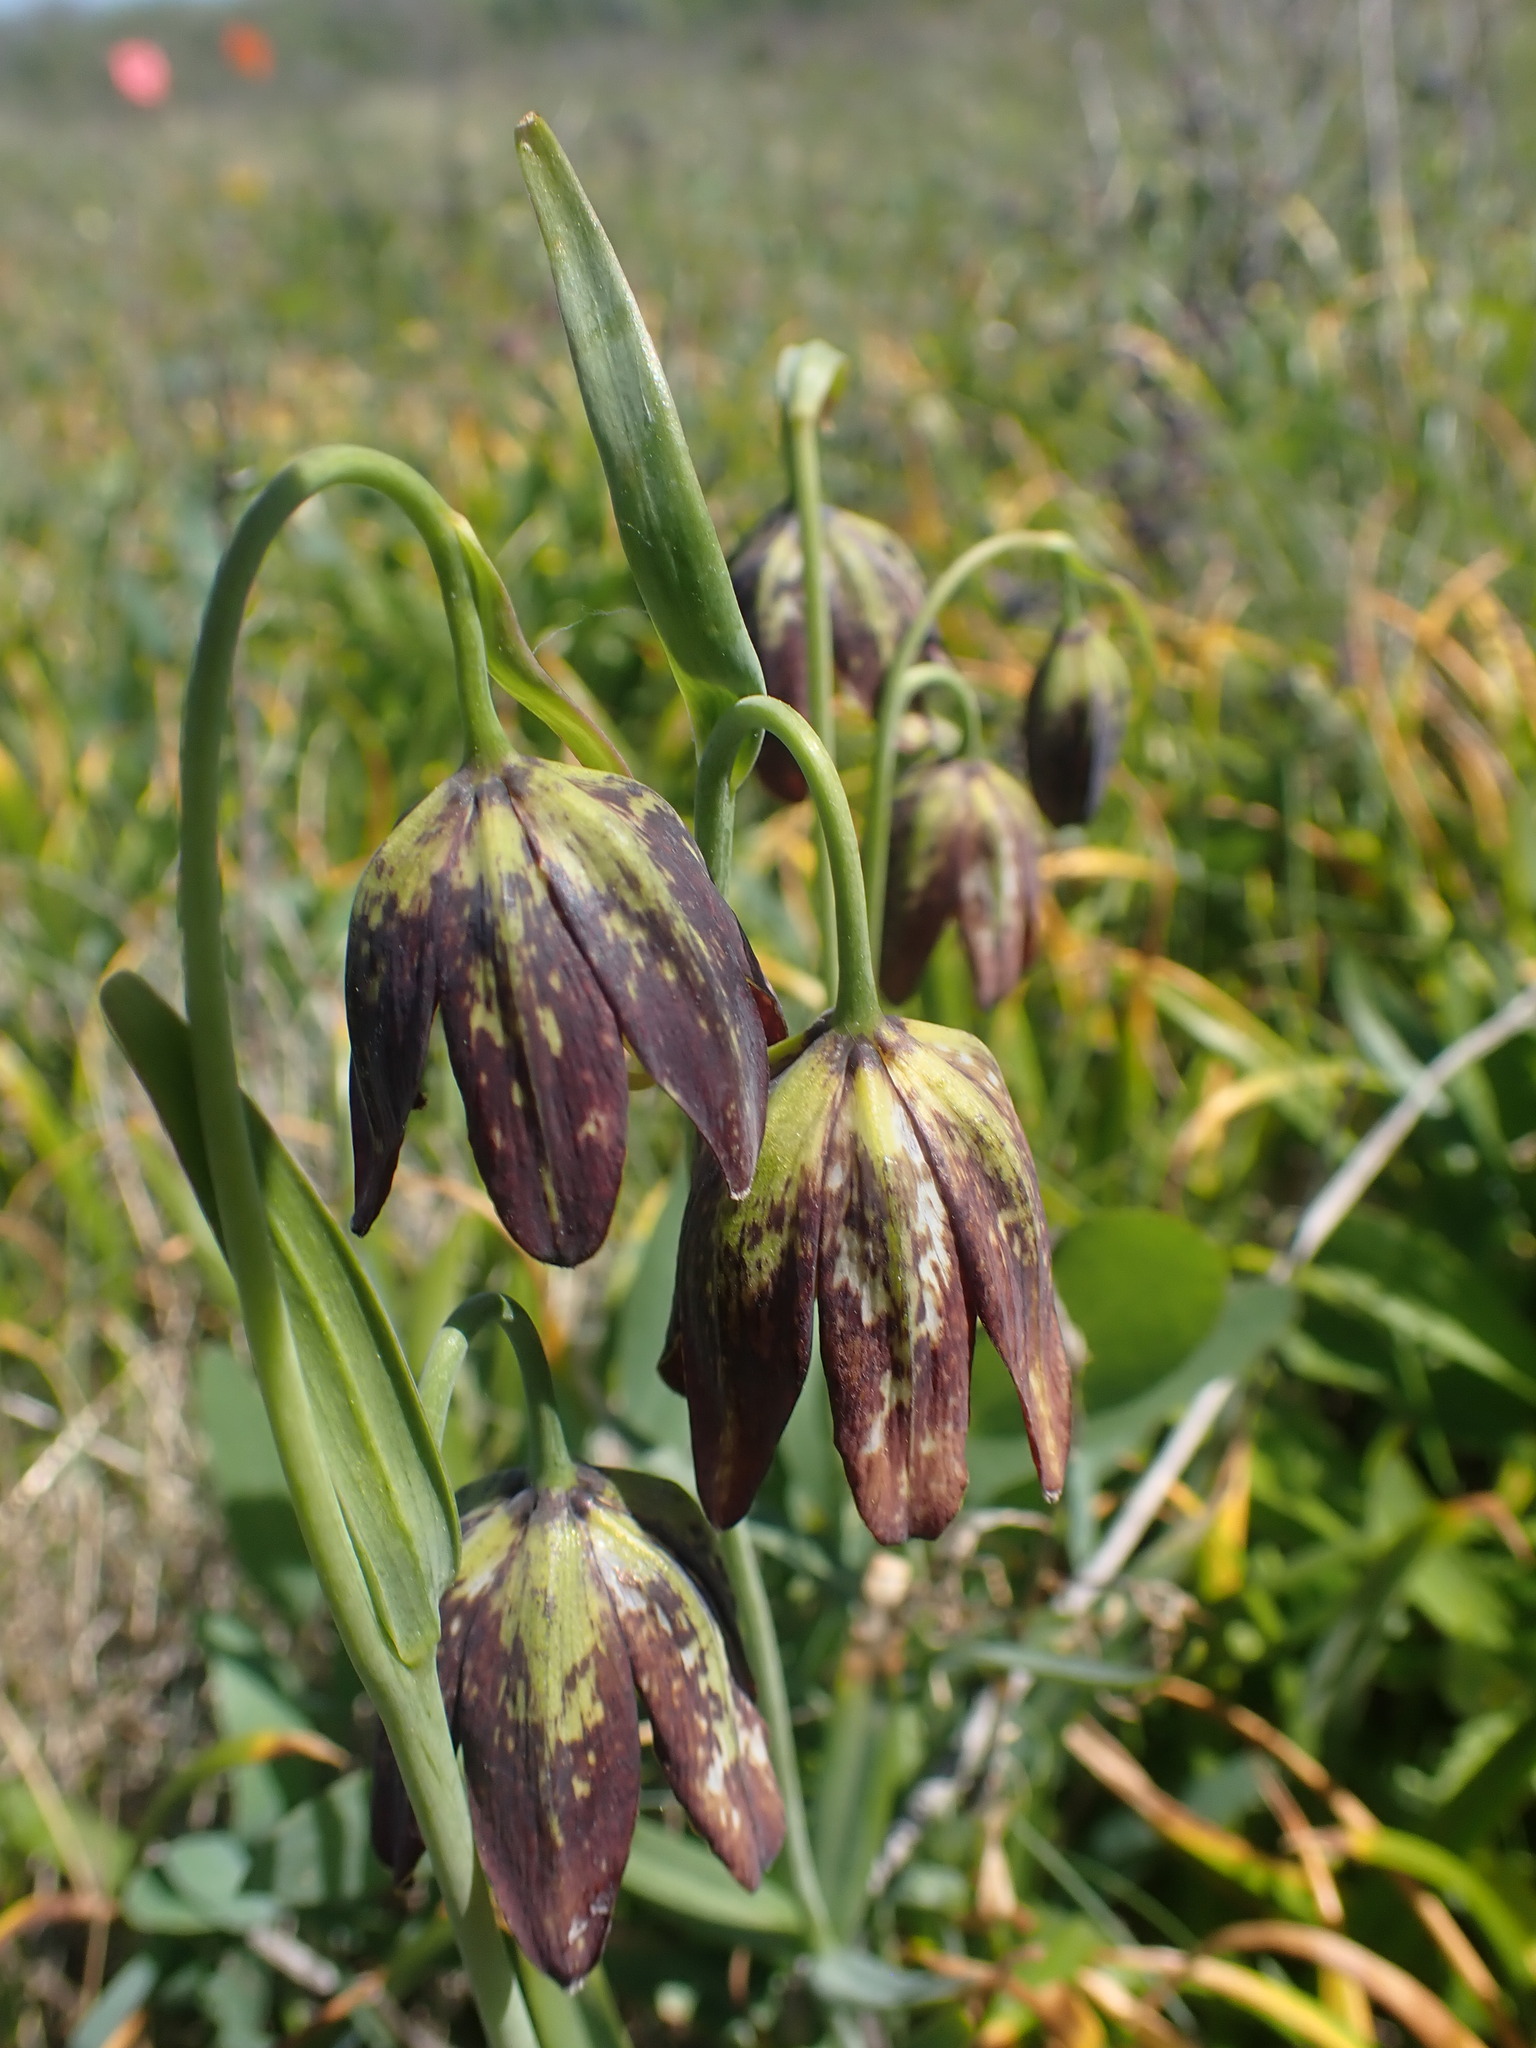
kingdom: Plantae
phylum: Tracheophyta
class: Liliopsida
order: Liliales
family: Liliaceae
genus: Fritillaria
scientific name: Fritillaria affinis
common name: Ojai fritillary
